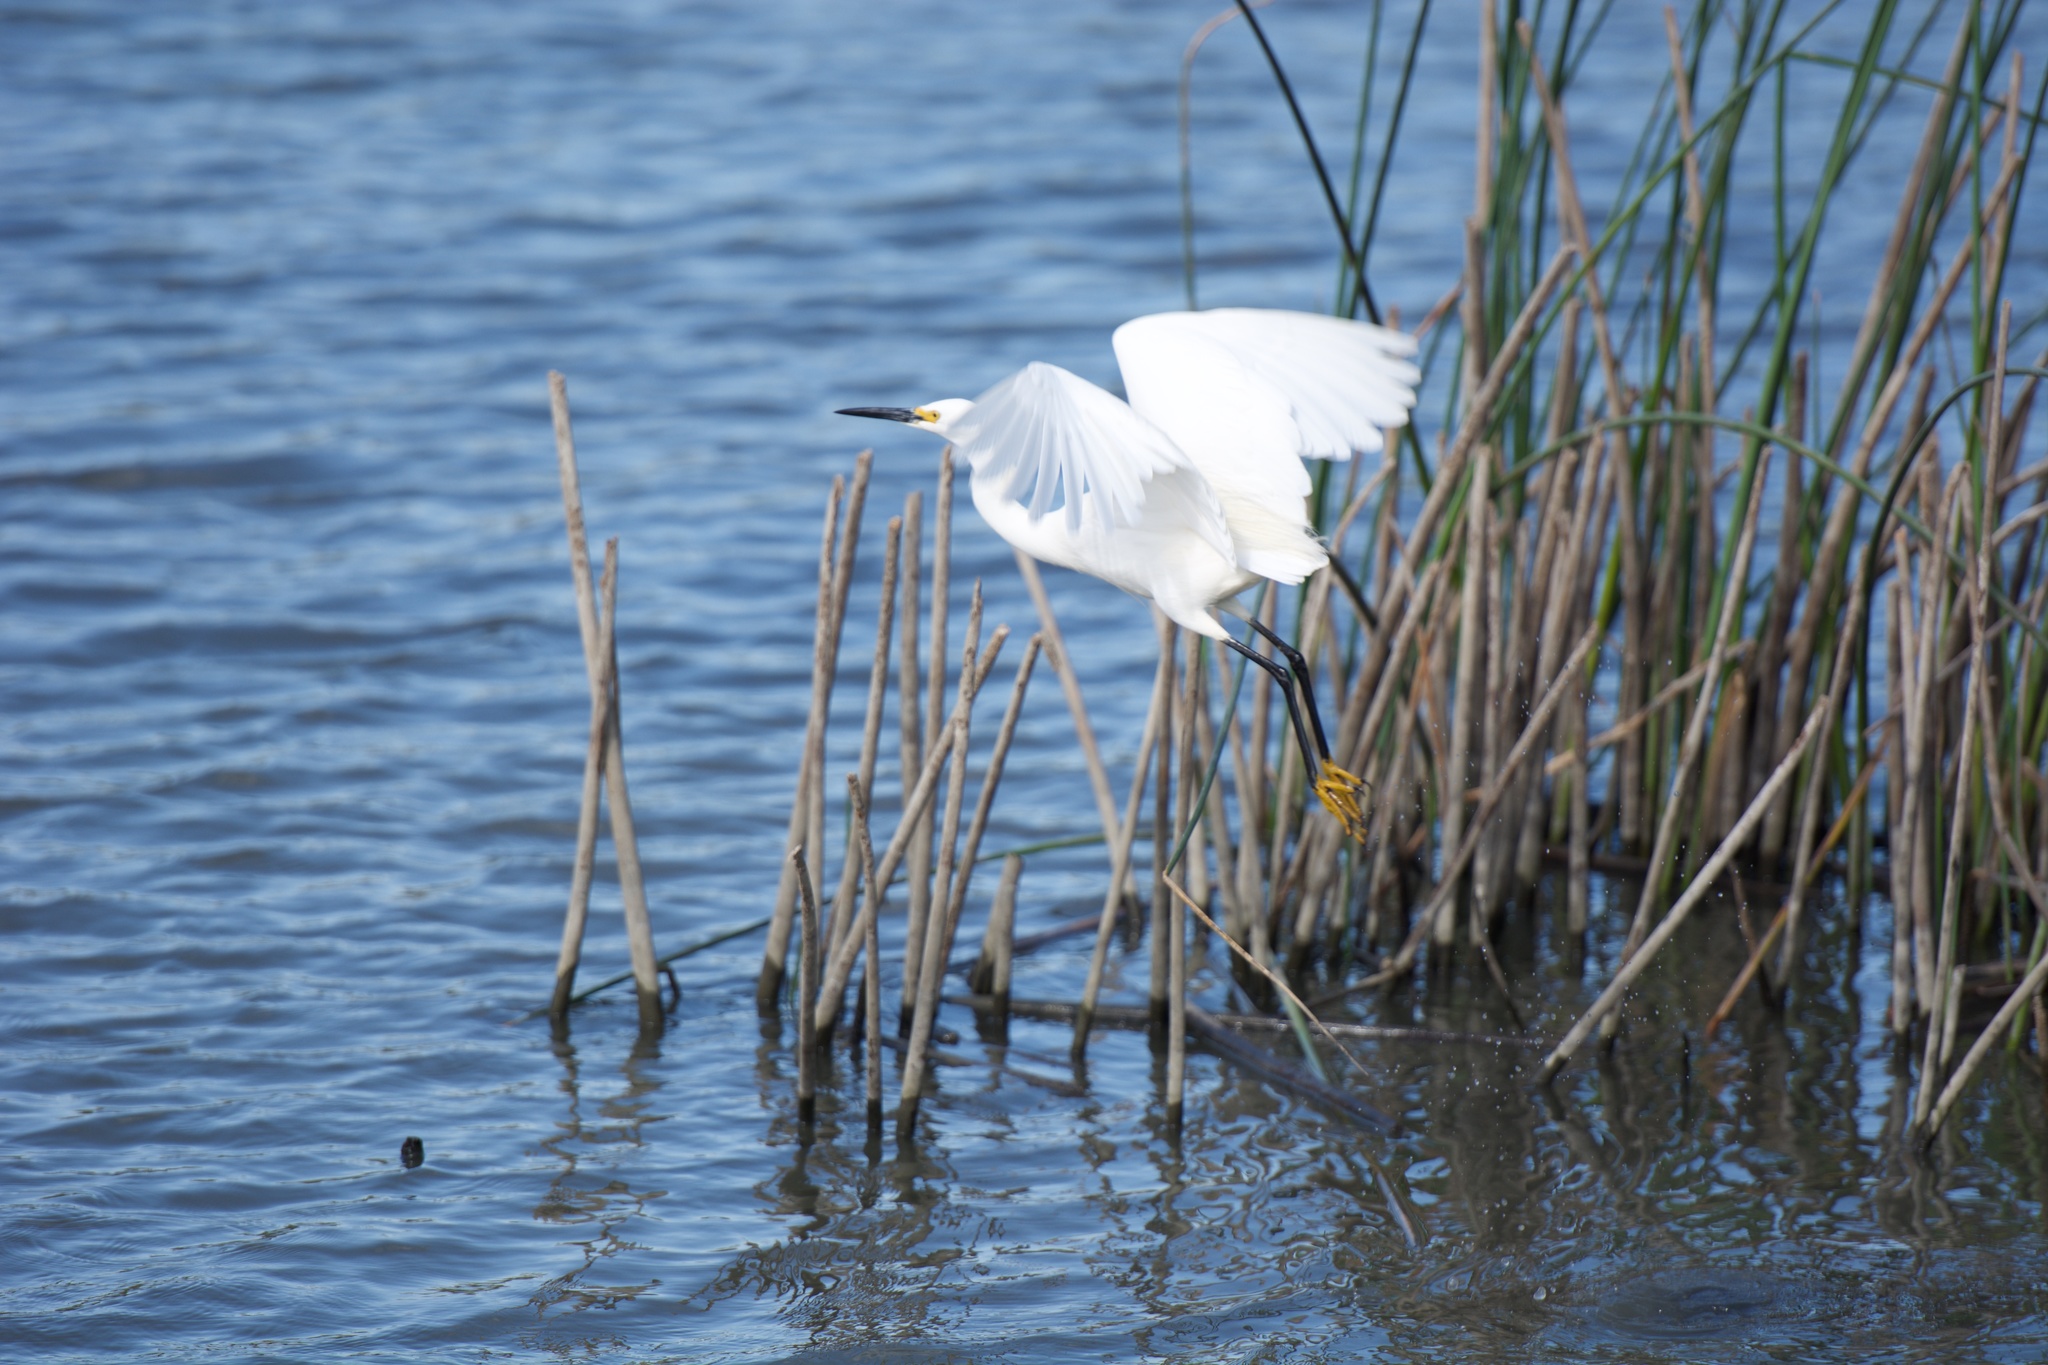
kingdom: Animalia
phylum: Chordata
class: Aves
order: Pelecaniformes
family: Ardeidae
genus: Egretta
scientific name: Egretta thula
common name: Snowy egret
